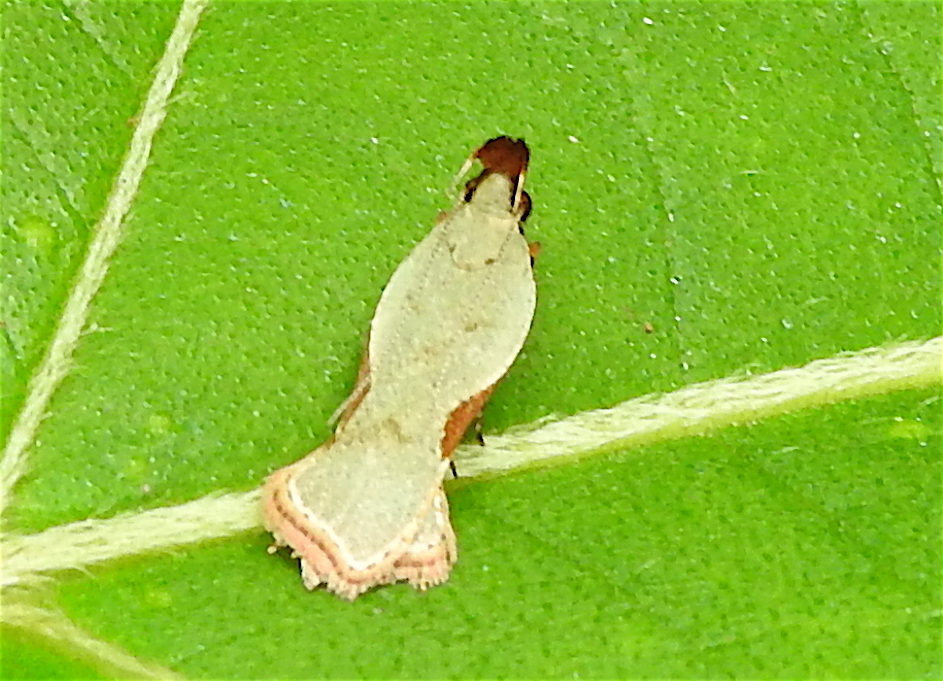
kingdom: Animalia
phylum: Arthropoda
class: Insecta
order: Lepidoptera
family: Gelechiidae
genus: Dichomeris
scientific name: Dichomeris oxycarpa
